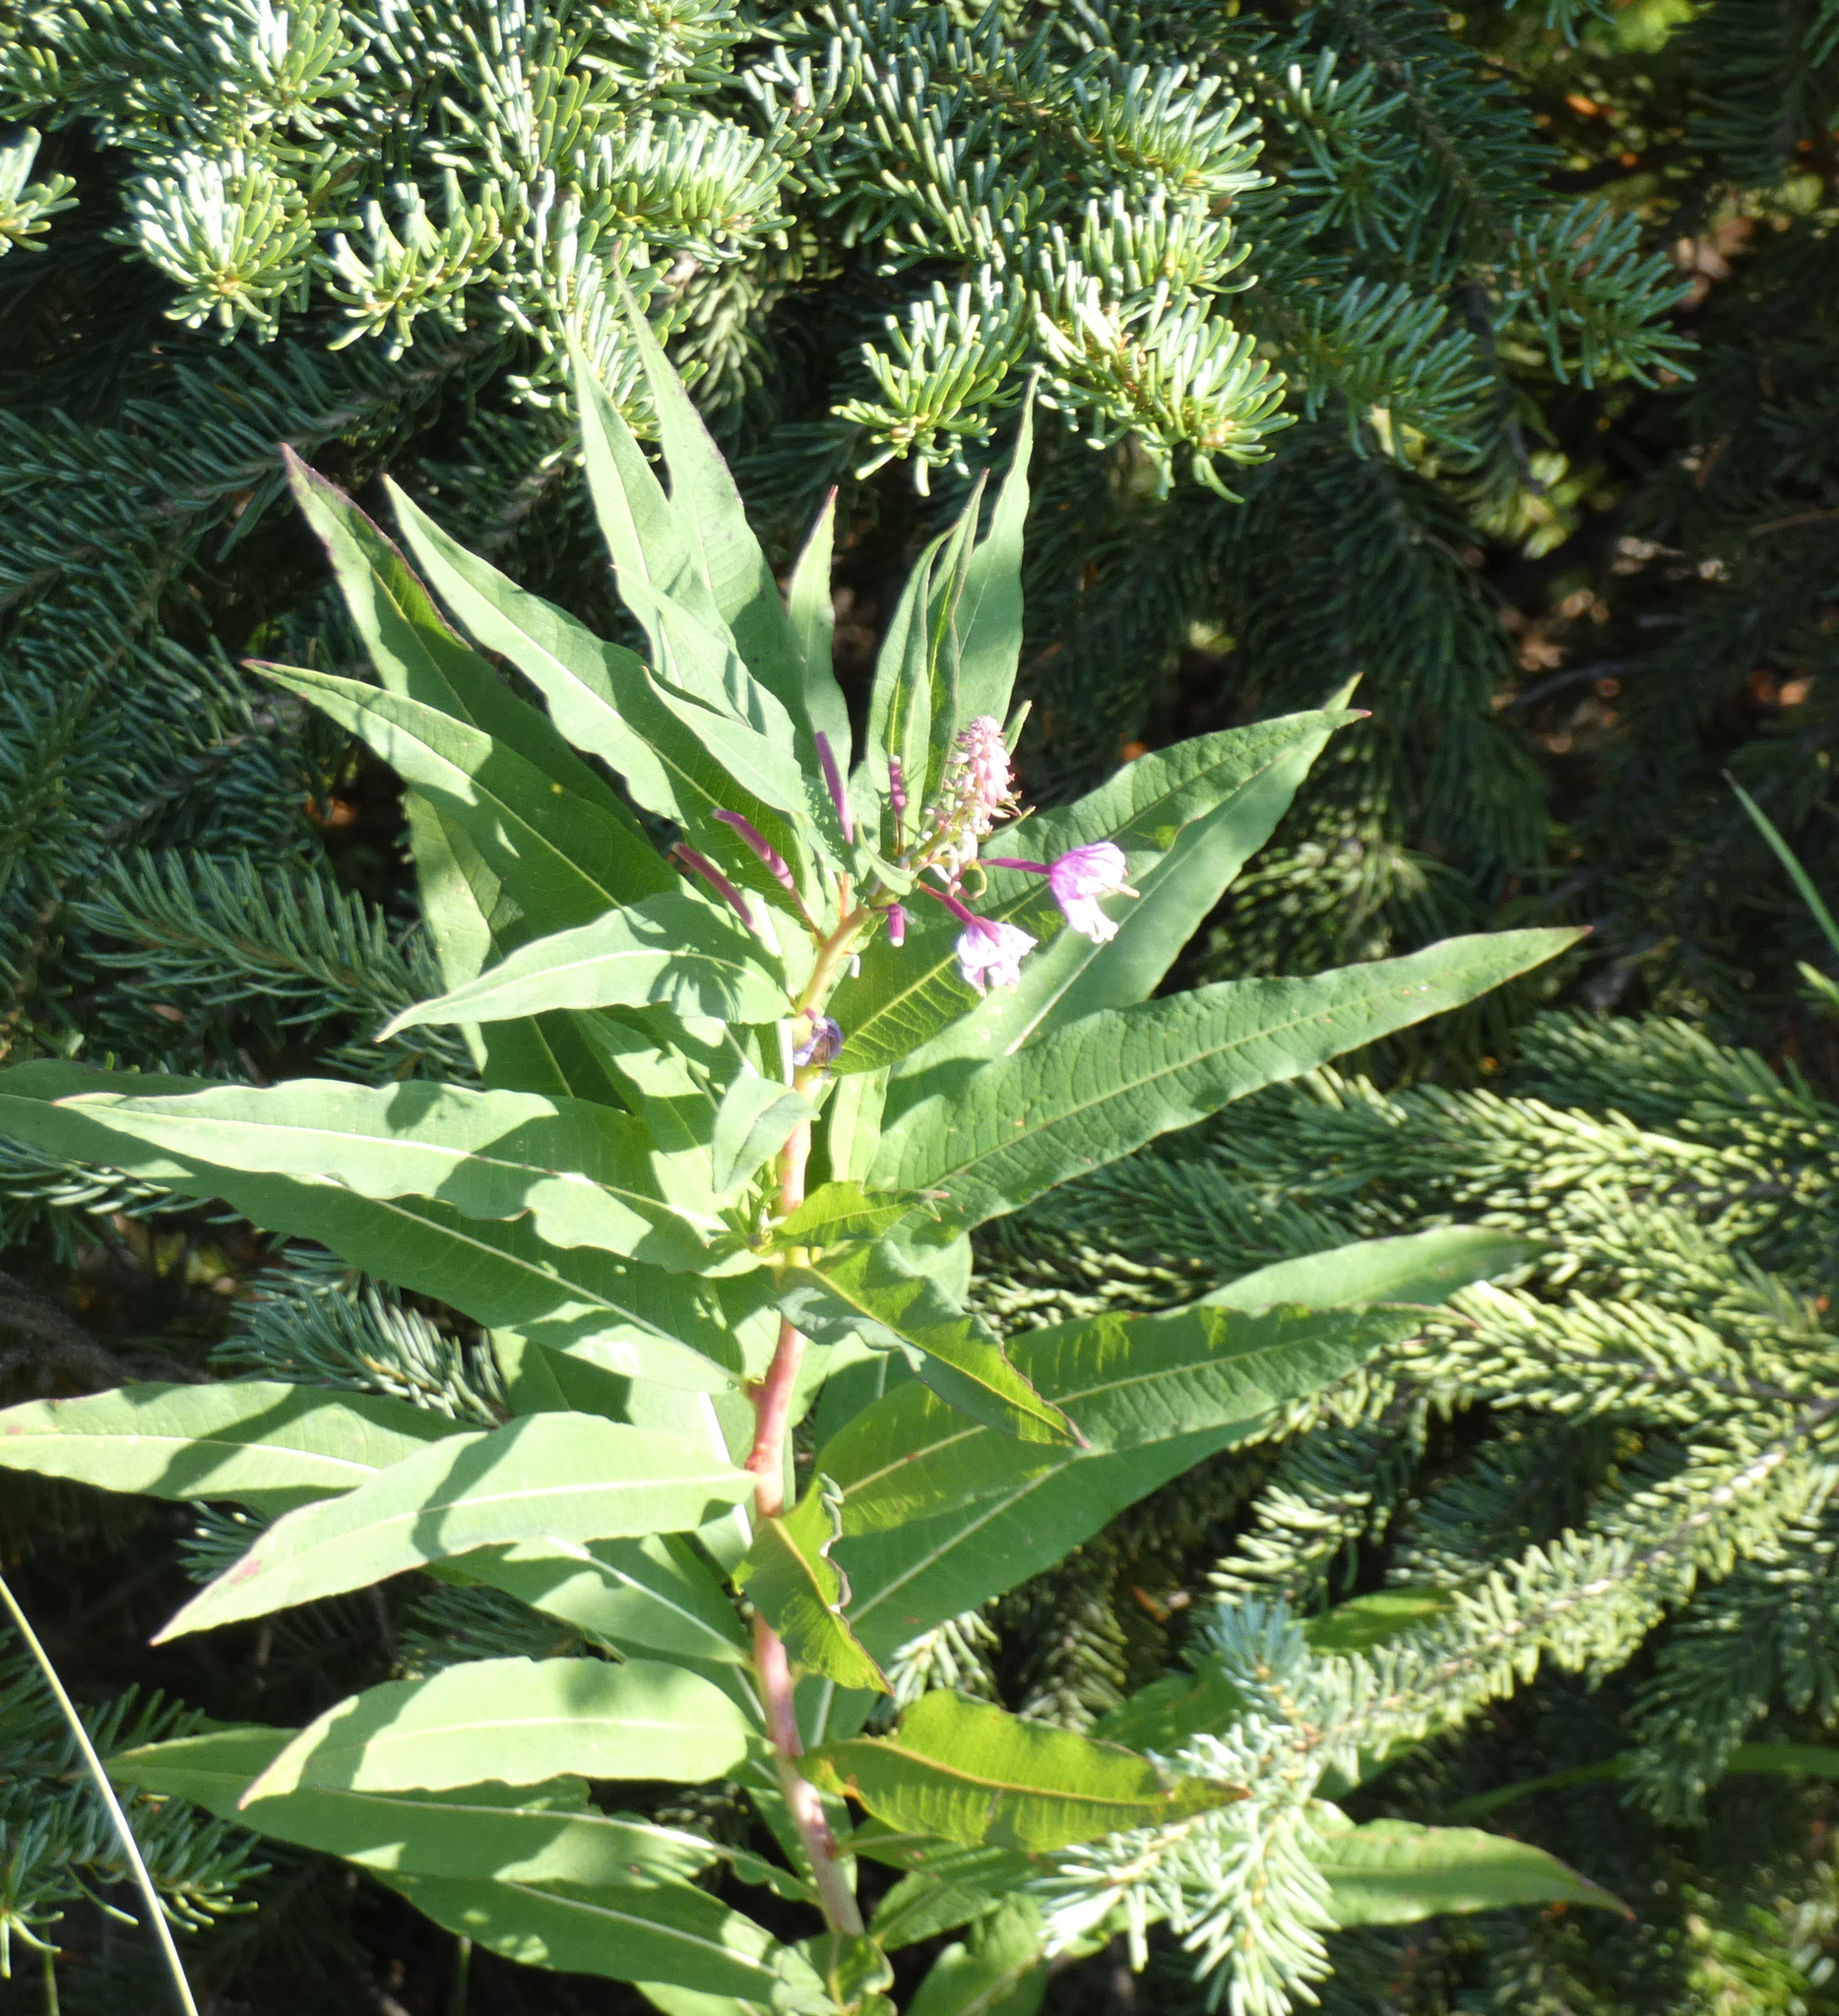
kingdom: Plantae
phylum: Tracheophyta
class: Magnoliopsida
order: Myrtales
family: Onagraceae
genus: Chamaenerion
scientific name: Chamaenerion angustifolium
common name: Fireweed
